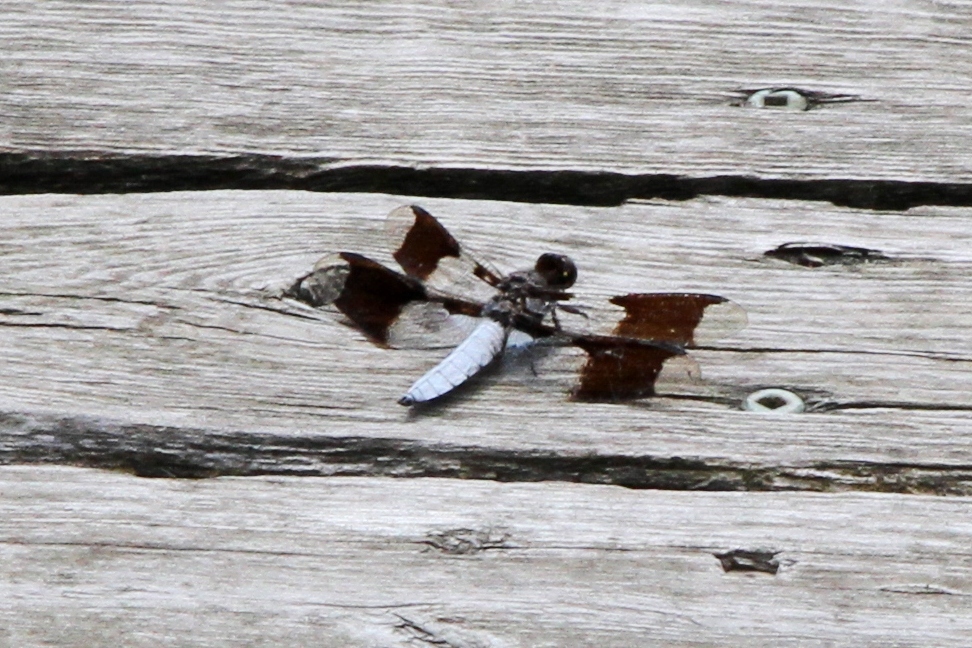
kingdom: Animalia
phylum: Arthropoda
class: Insecta
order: Odonata
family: Libellulidae
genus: Plathemis
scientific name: Plathemis lydia
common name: Common whitetail
